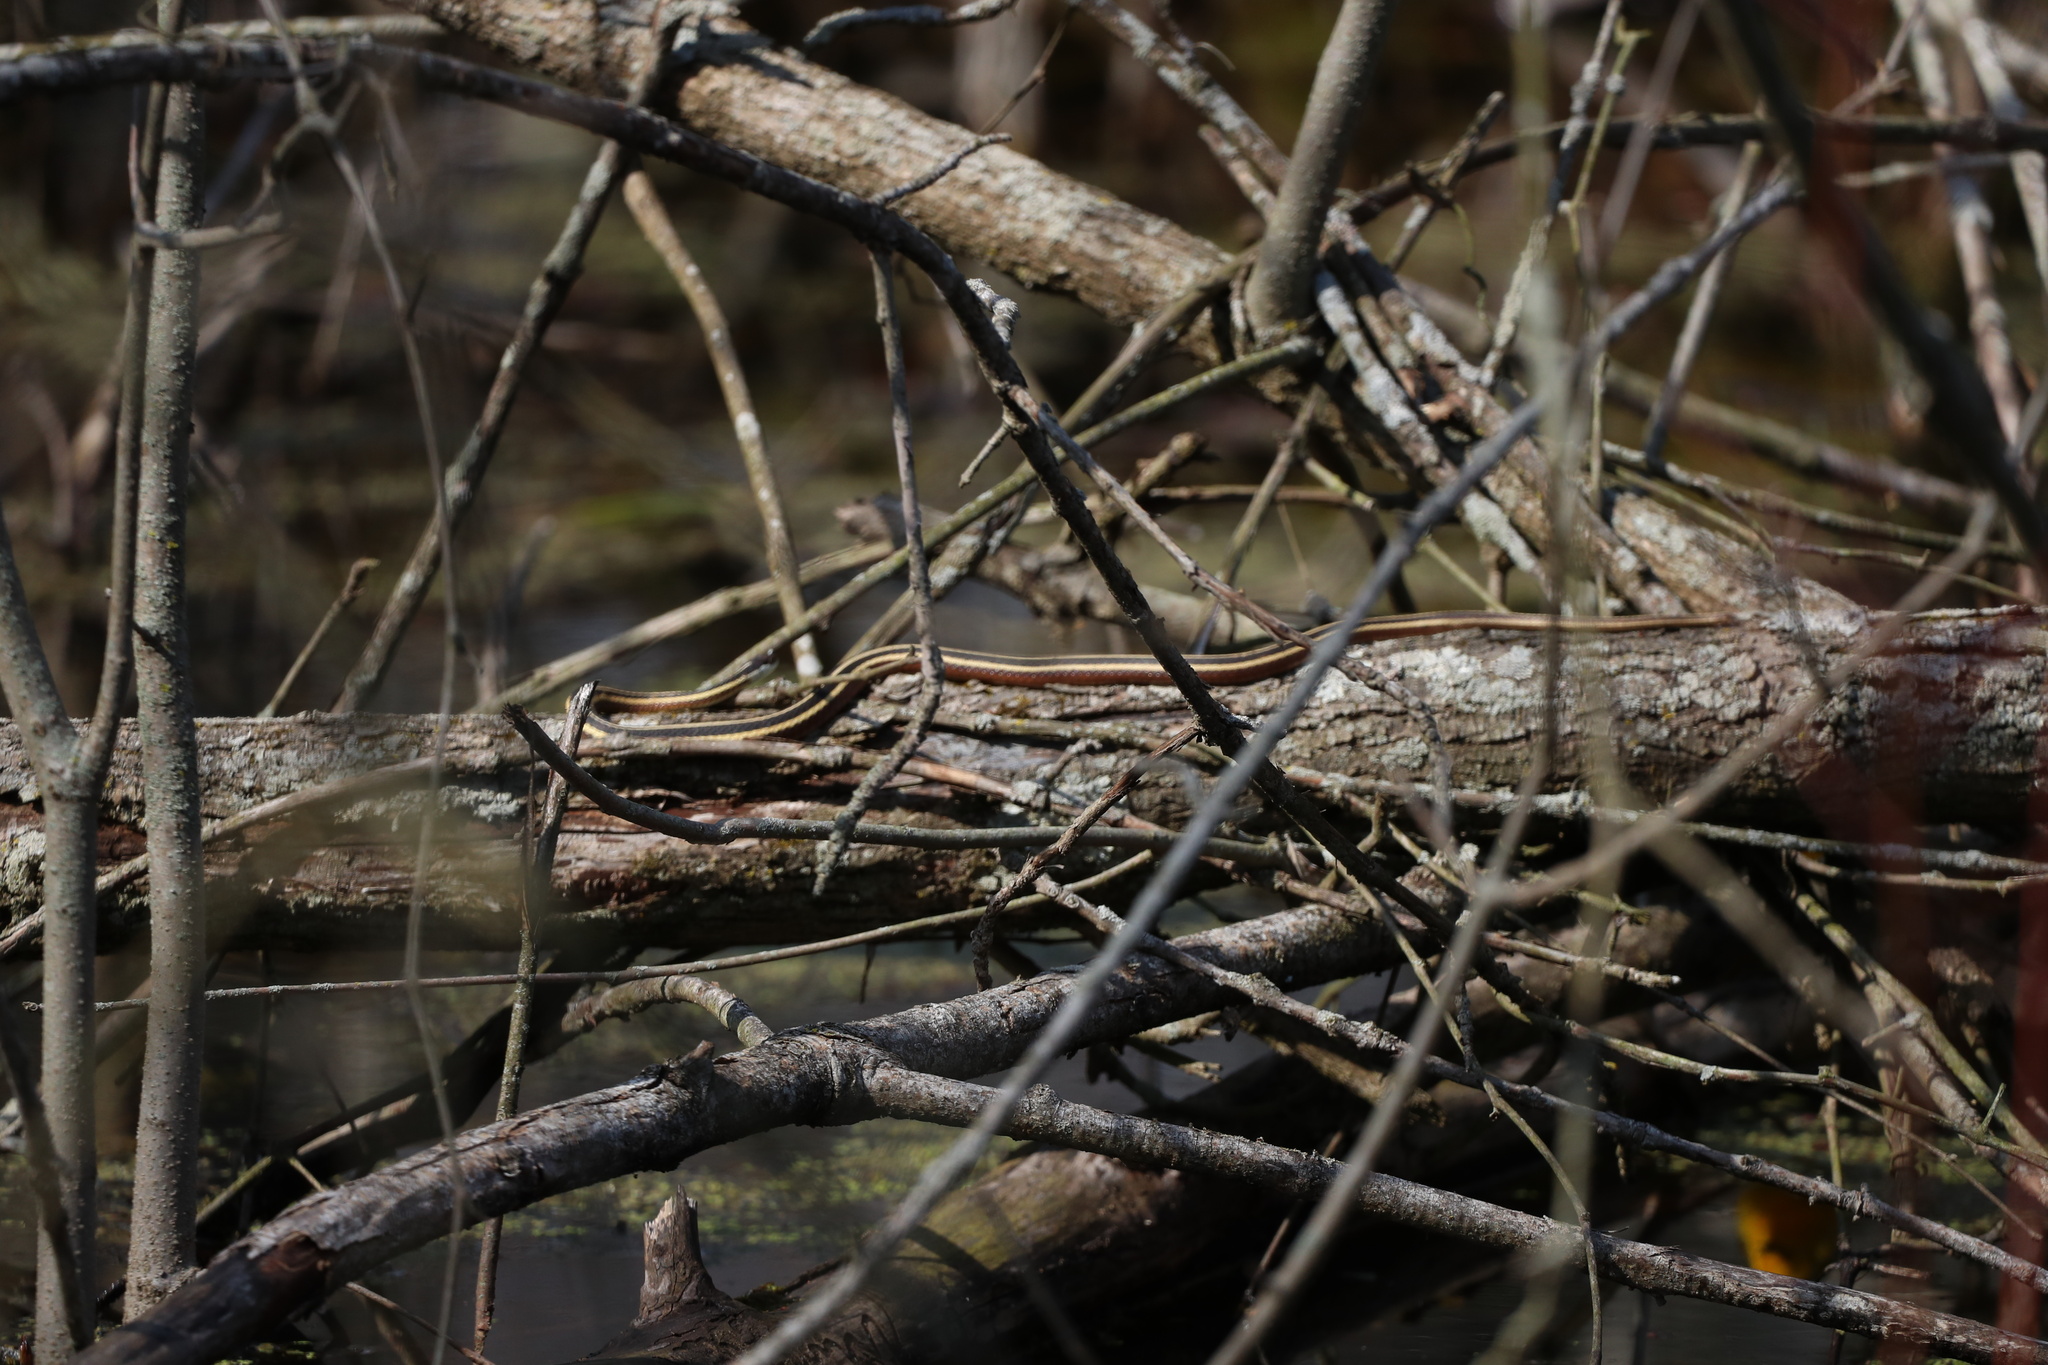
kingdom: Animalia
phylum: Chordata
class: Squamata
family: Colubridae
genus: Thamnophis
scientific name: Thamnophis saurita
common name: Eastern ribbonsnake
